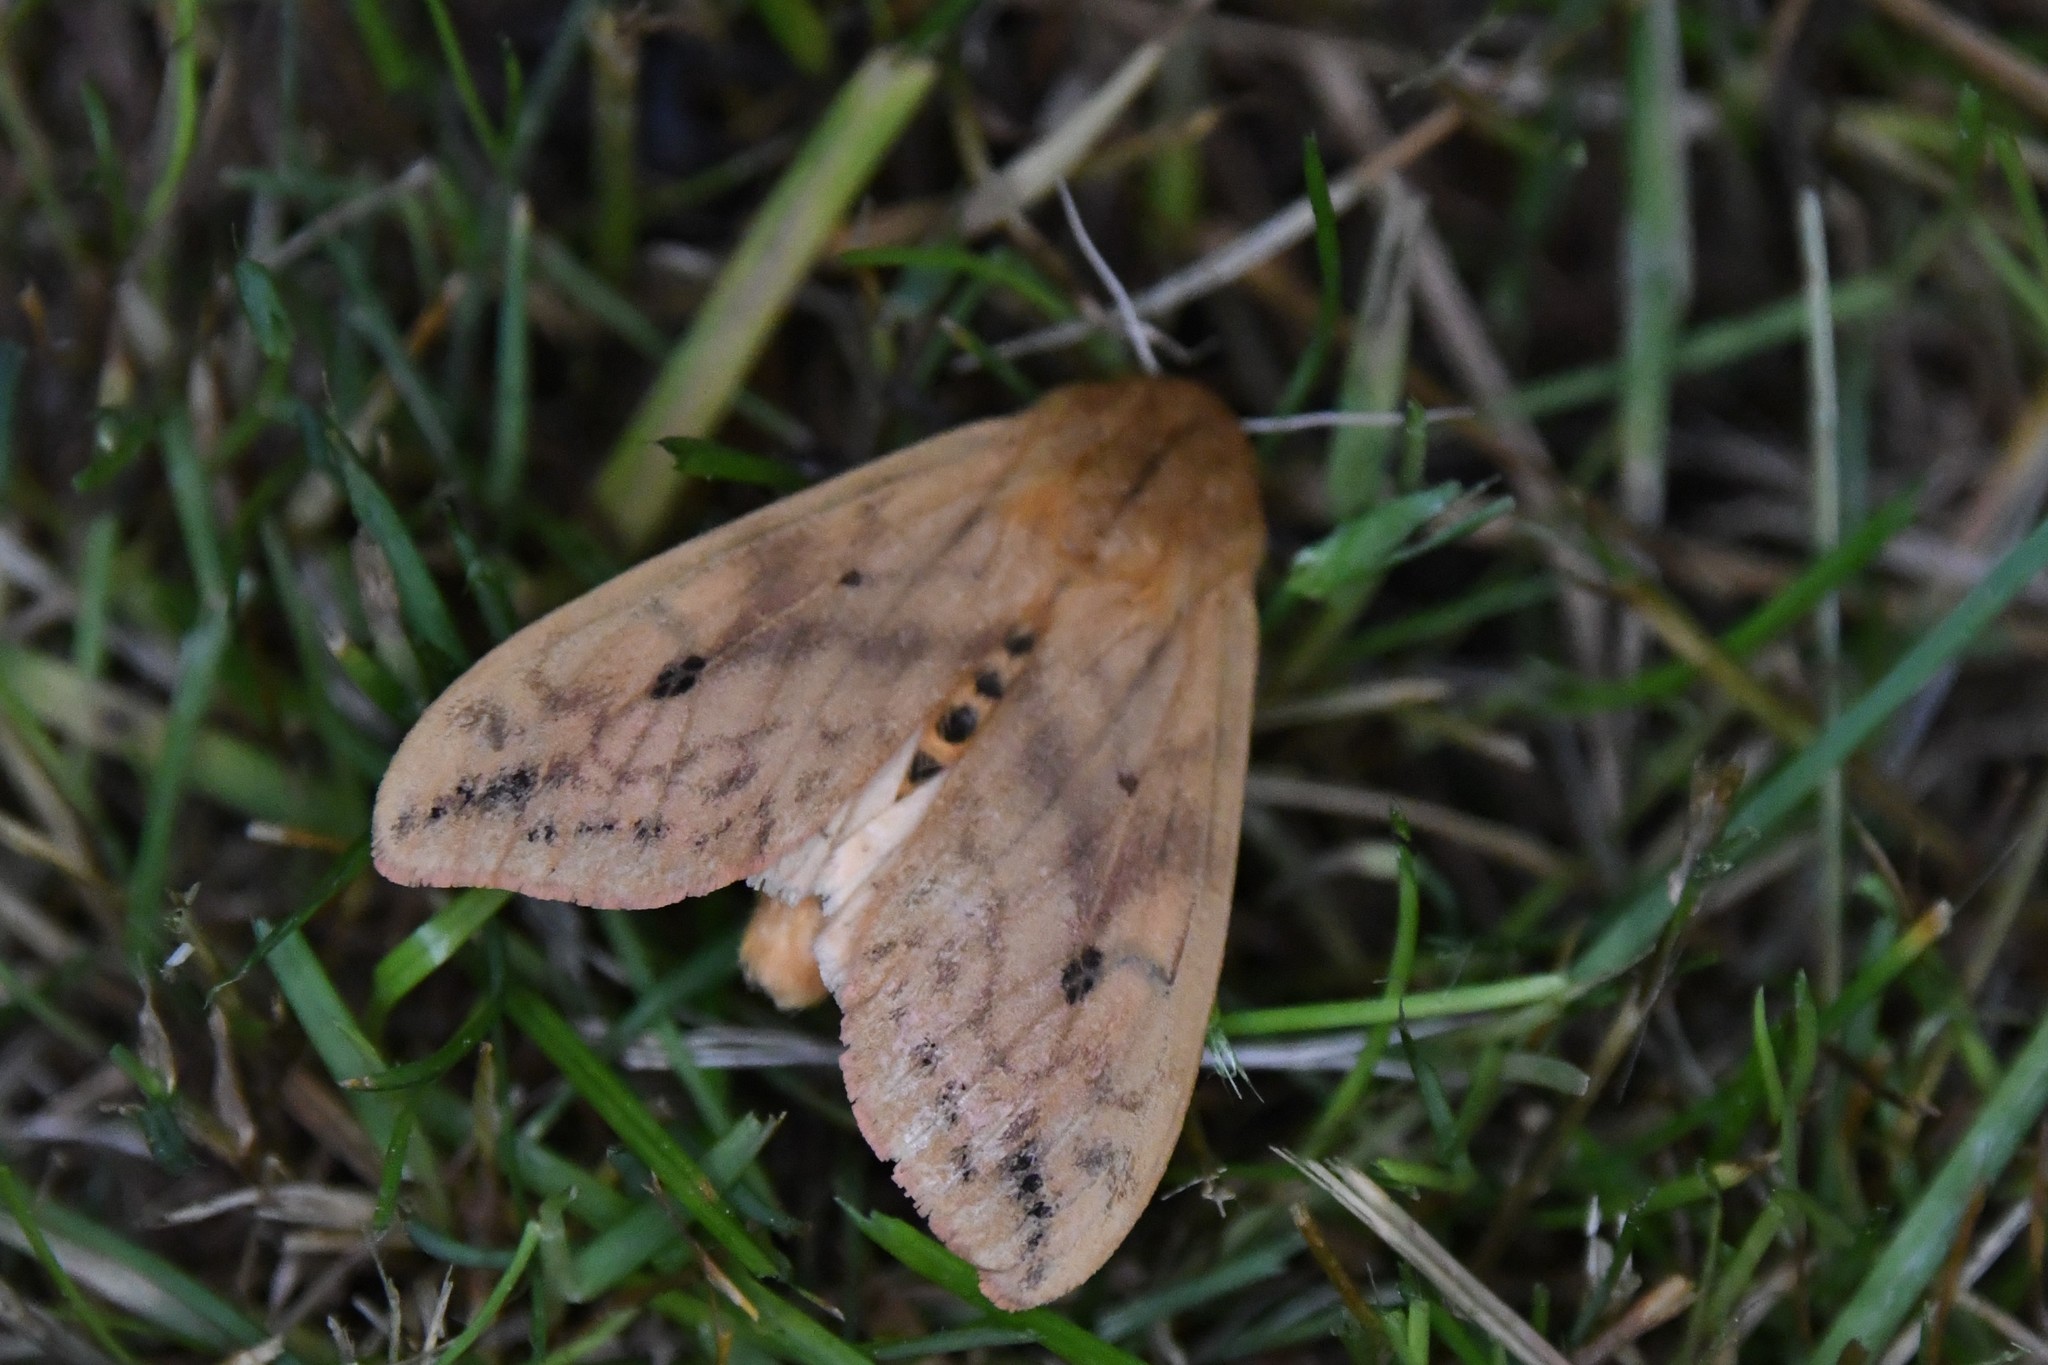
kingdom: Animalia
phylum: Arthropoda
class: Insecta
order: Lepidoptera
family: Erebidae
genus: Pyrrharctia
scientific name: Pyrrharctia isabella
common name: Isabella tiger moth
